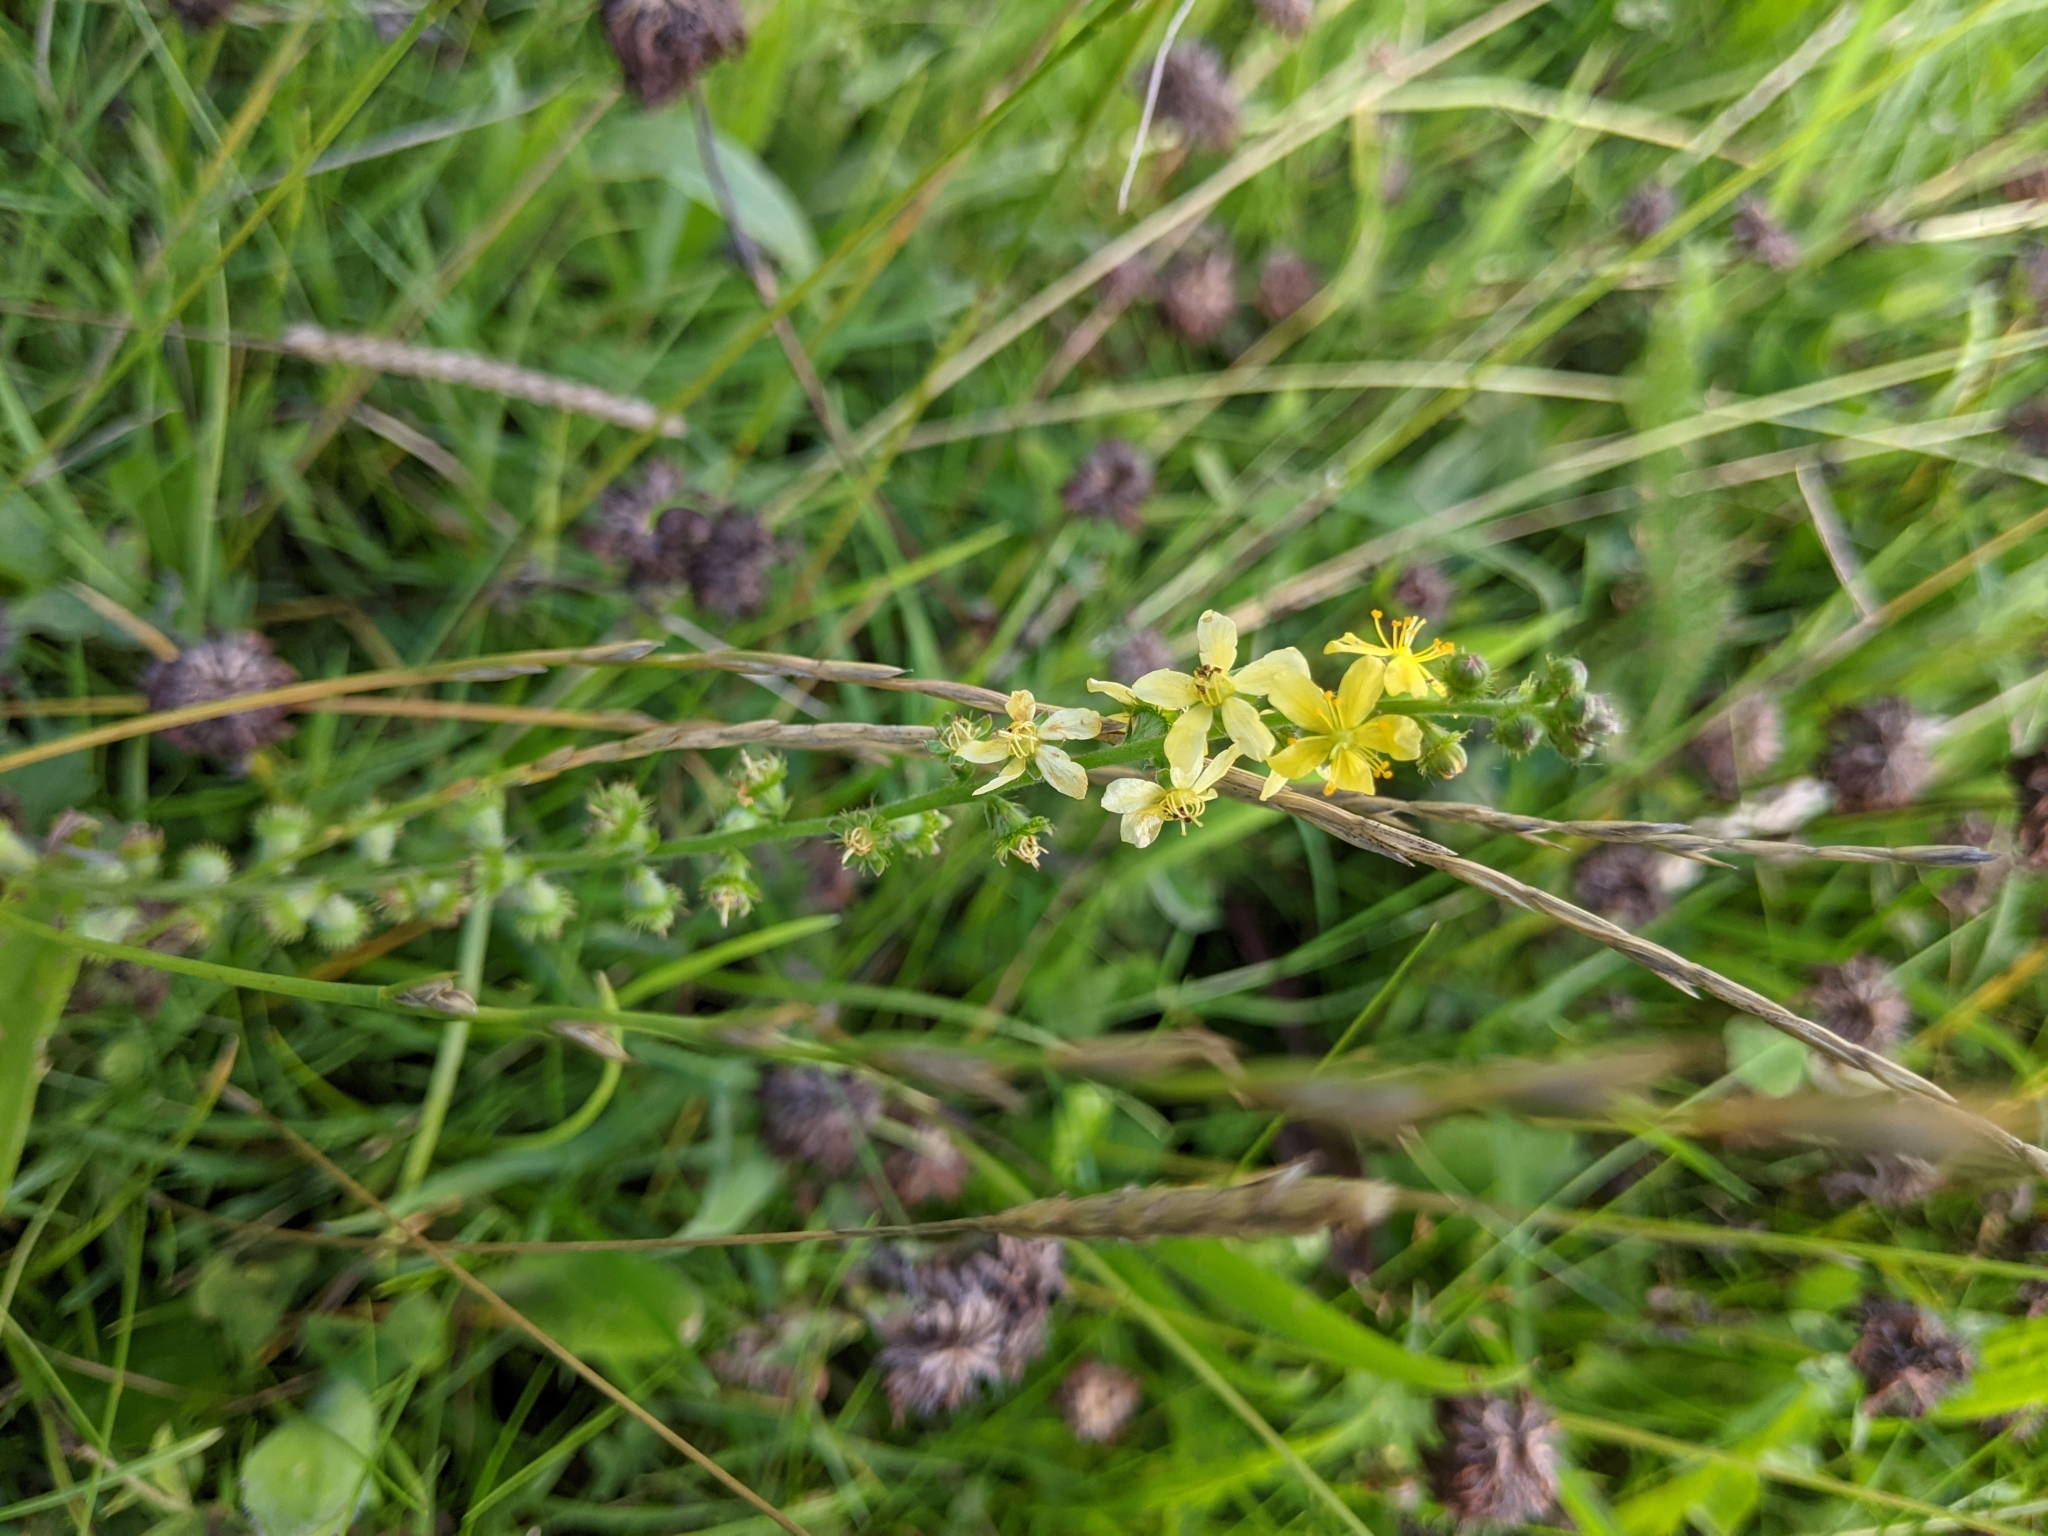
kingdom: Plantae
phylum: Tracheophyta
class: Magnoliopsida
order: Rosales
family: Rosaceae
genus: Agrimonia
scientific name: Agrimonia eupatoria
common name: Agrimony
